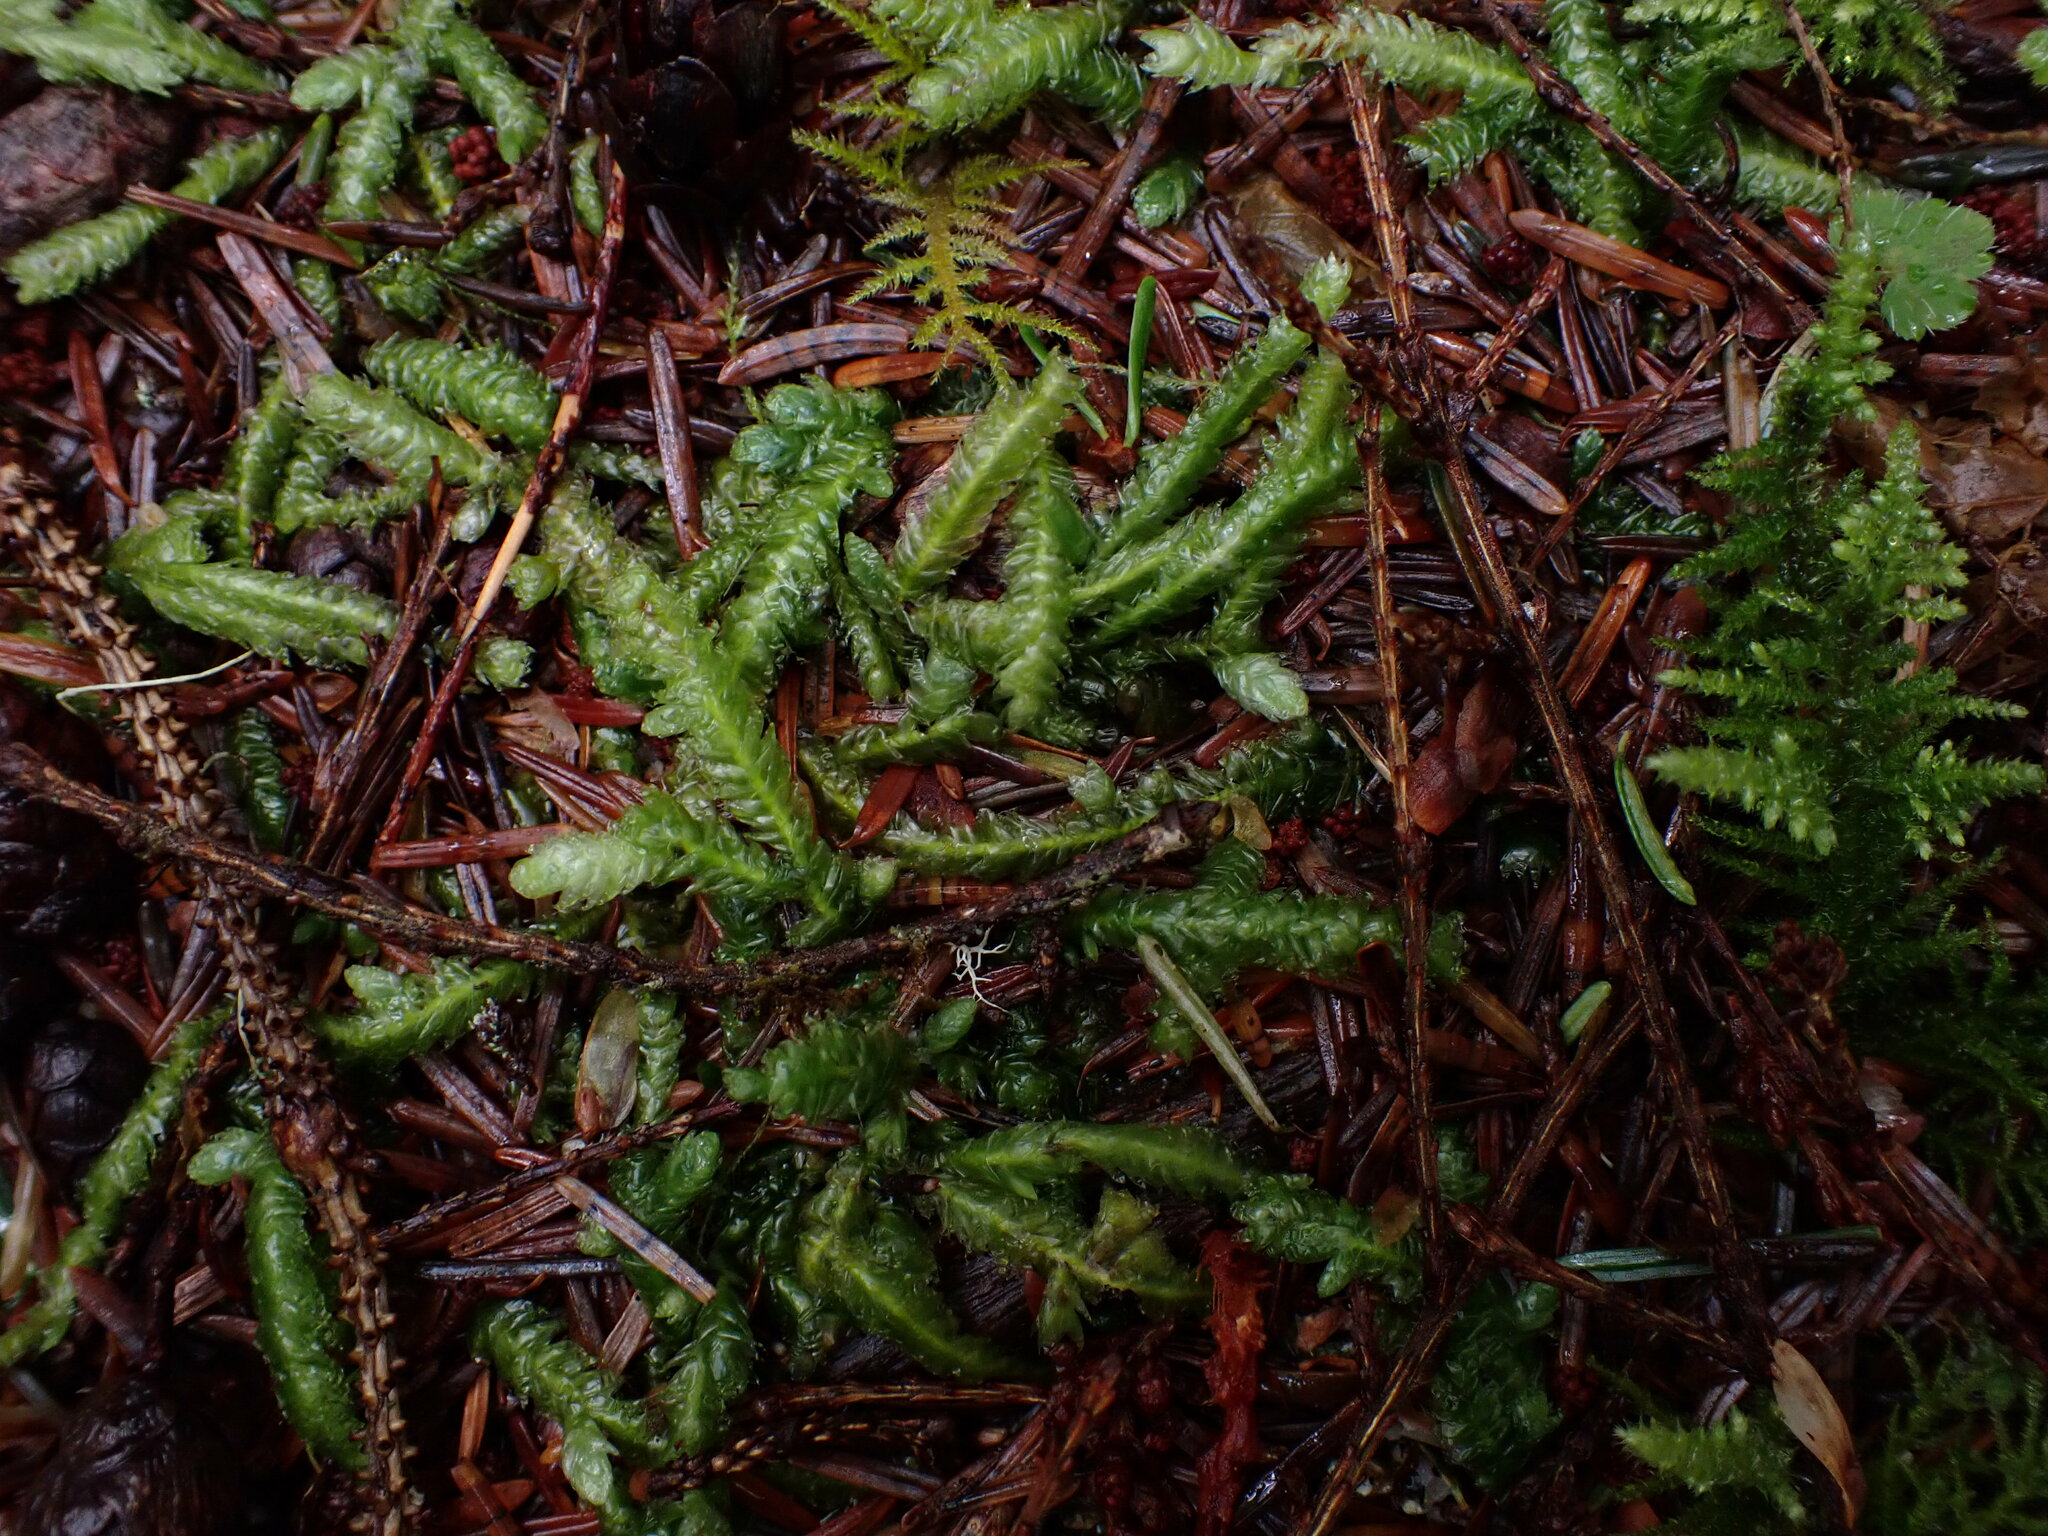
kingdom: Plantae
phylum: Bryophyta
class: Bryopsida
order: Hypnales
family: Plagiotheciaceae
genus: Plagiothecium
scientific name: Plagiothecium undulatum
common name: Waved silk-moss
